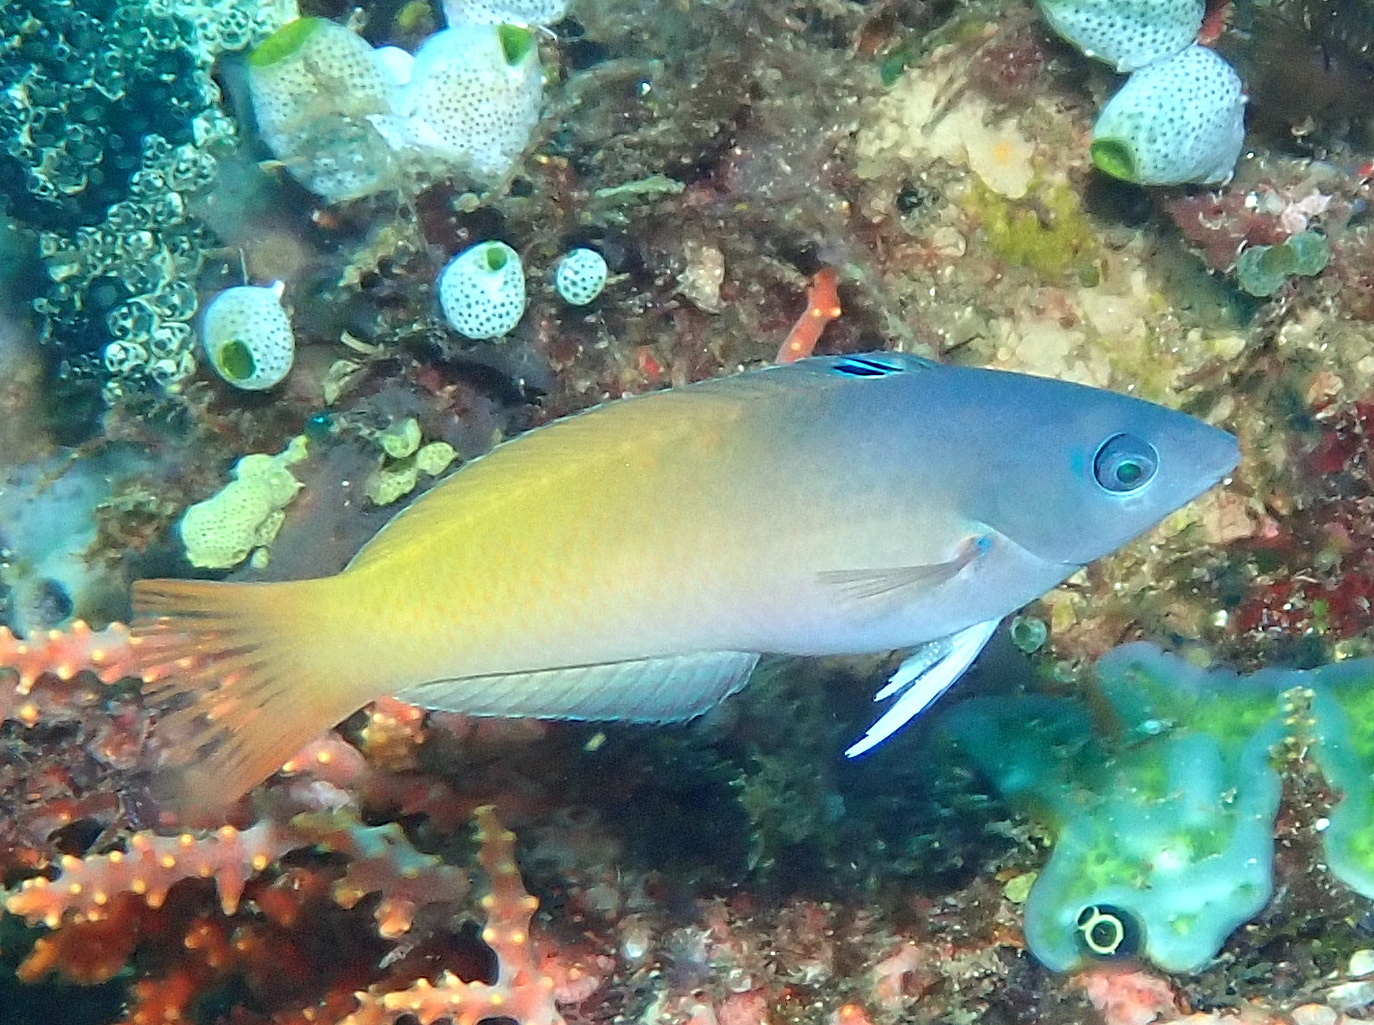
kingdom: Animalia
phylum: Chordata
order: Perciformes
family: Labridae
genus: Halichoeres
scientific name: Halichoeres prosopeion
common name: Half-grey wrasse
